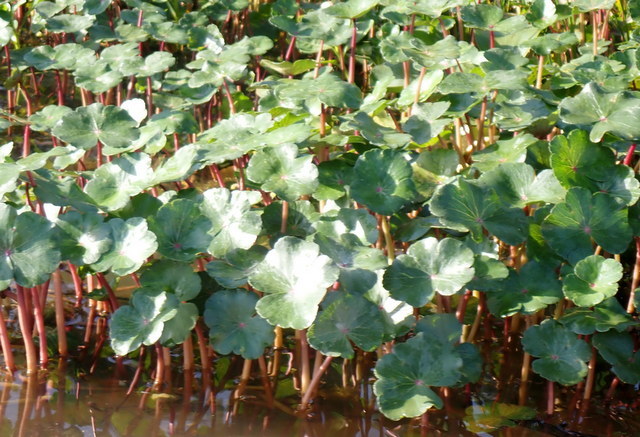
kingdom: Plantae
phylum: Tracheophyta
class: Magnoliopsida
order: Apiales
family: Araliaceae
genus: Hydrocotyle
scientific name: Hydrocotyle ranunculoides
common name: Floating pennywort
